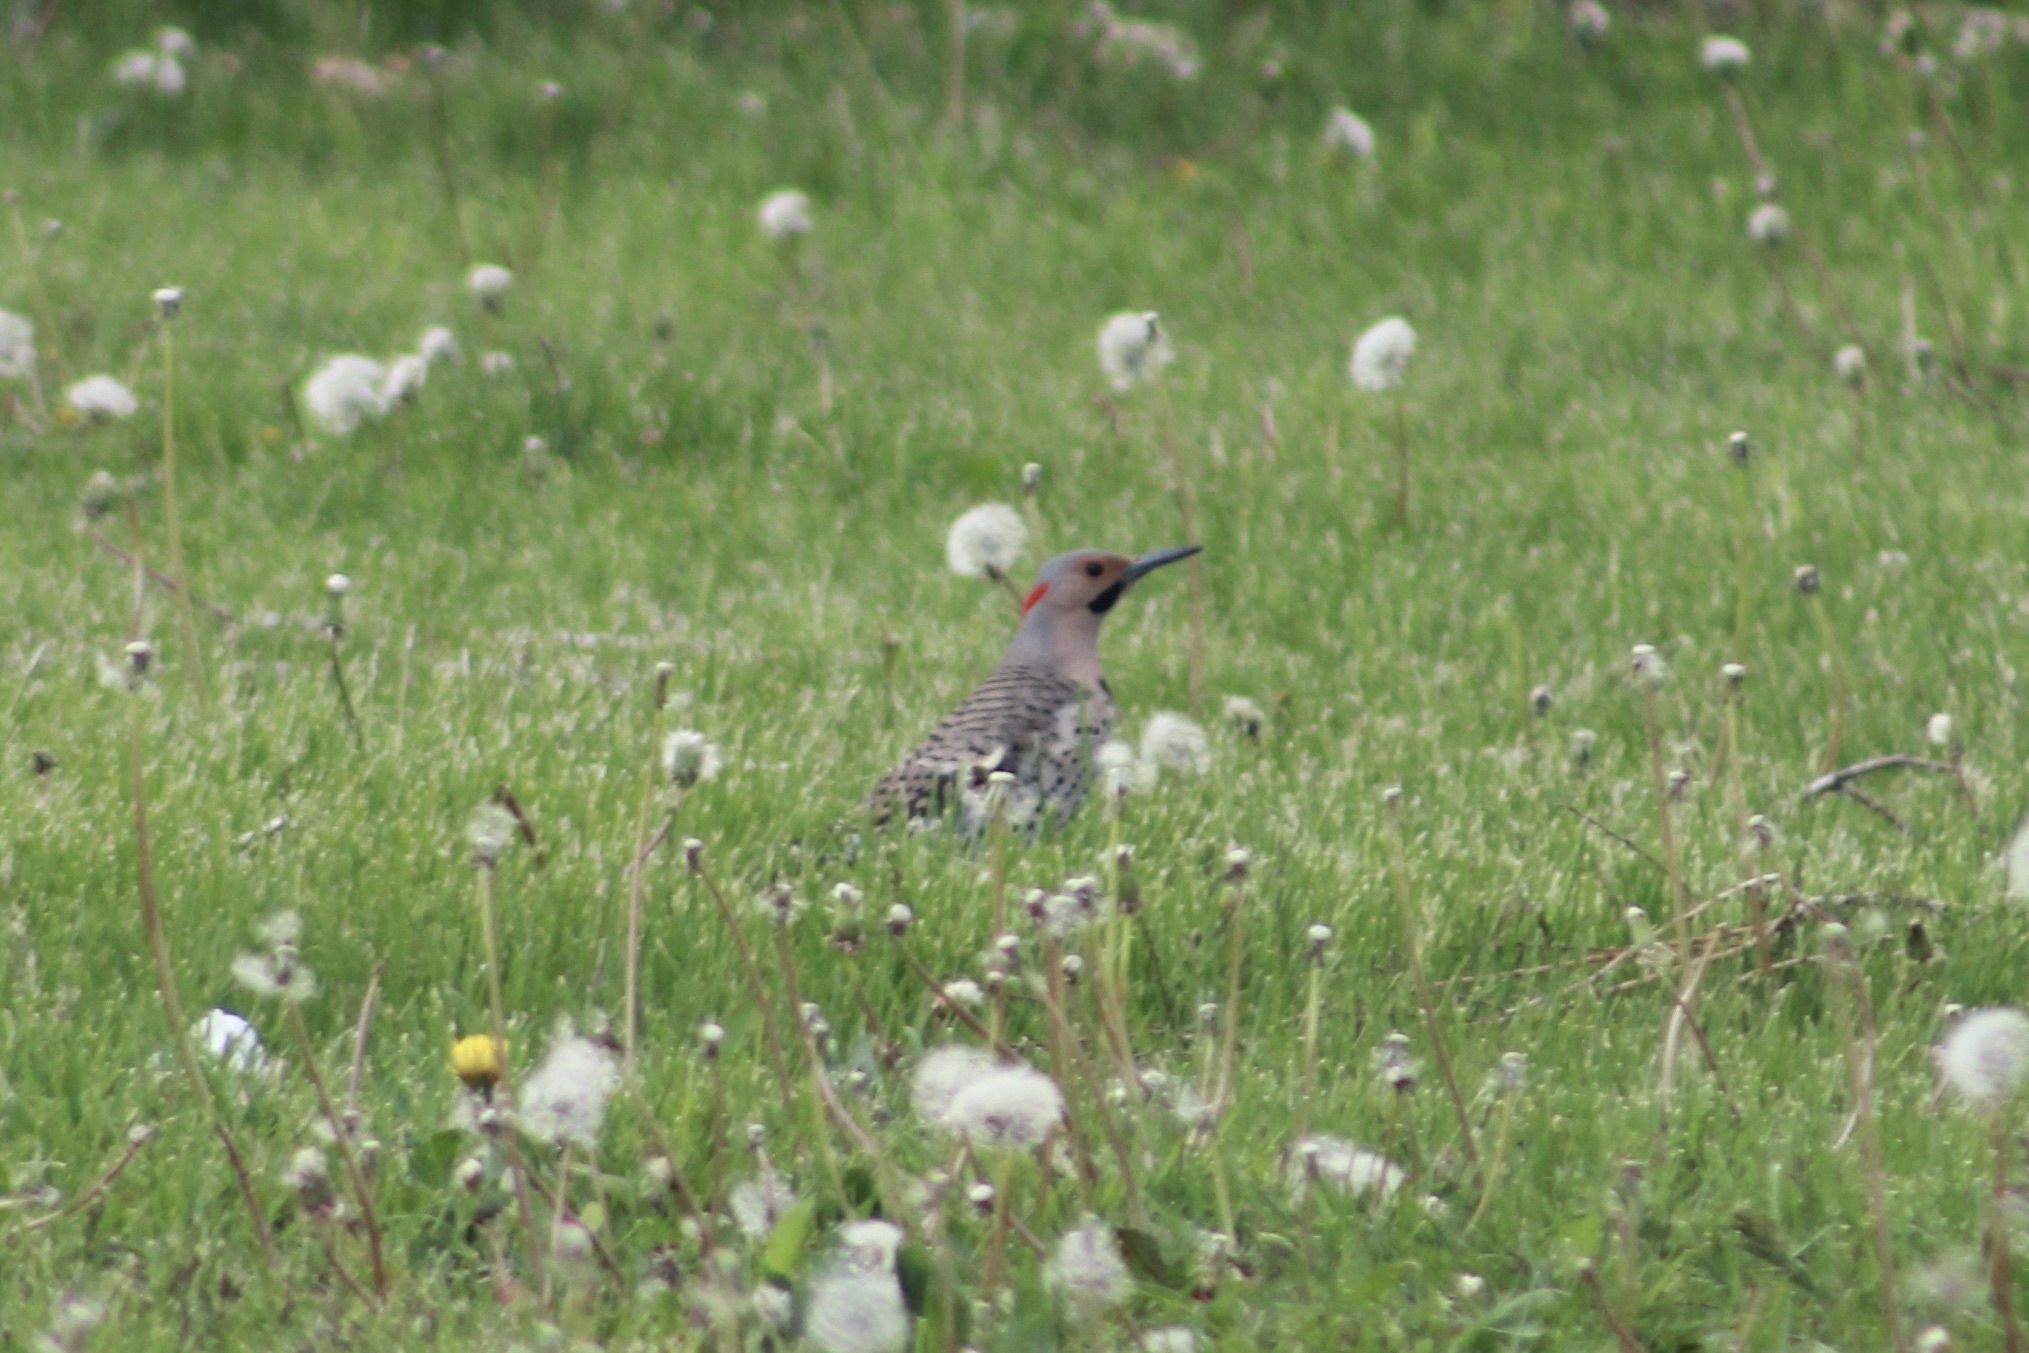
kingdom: Animalia
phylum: Chordata
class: Aves
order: Piciformes
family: Picidae
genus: Colaptes
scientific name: Colaptes auratus
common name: Northern flicker
